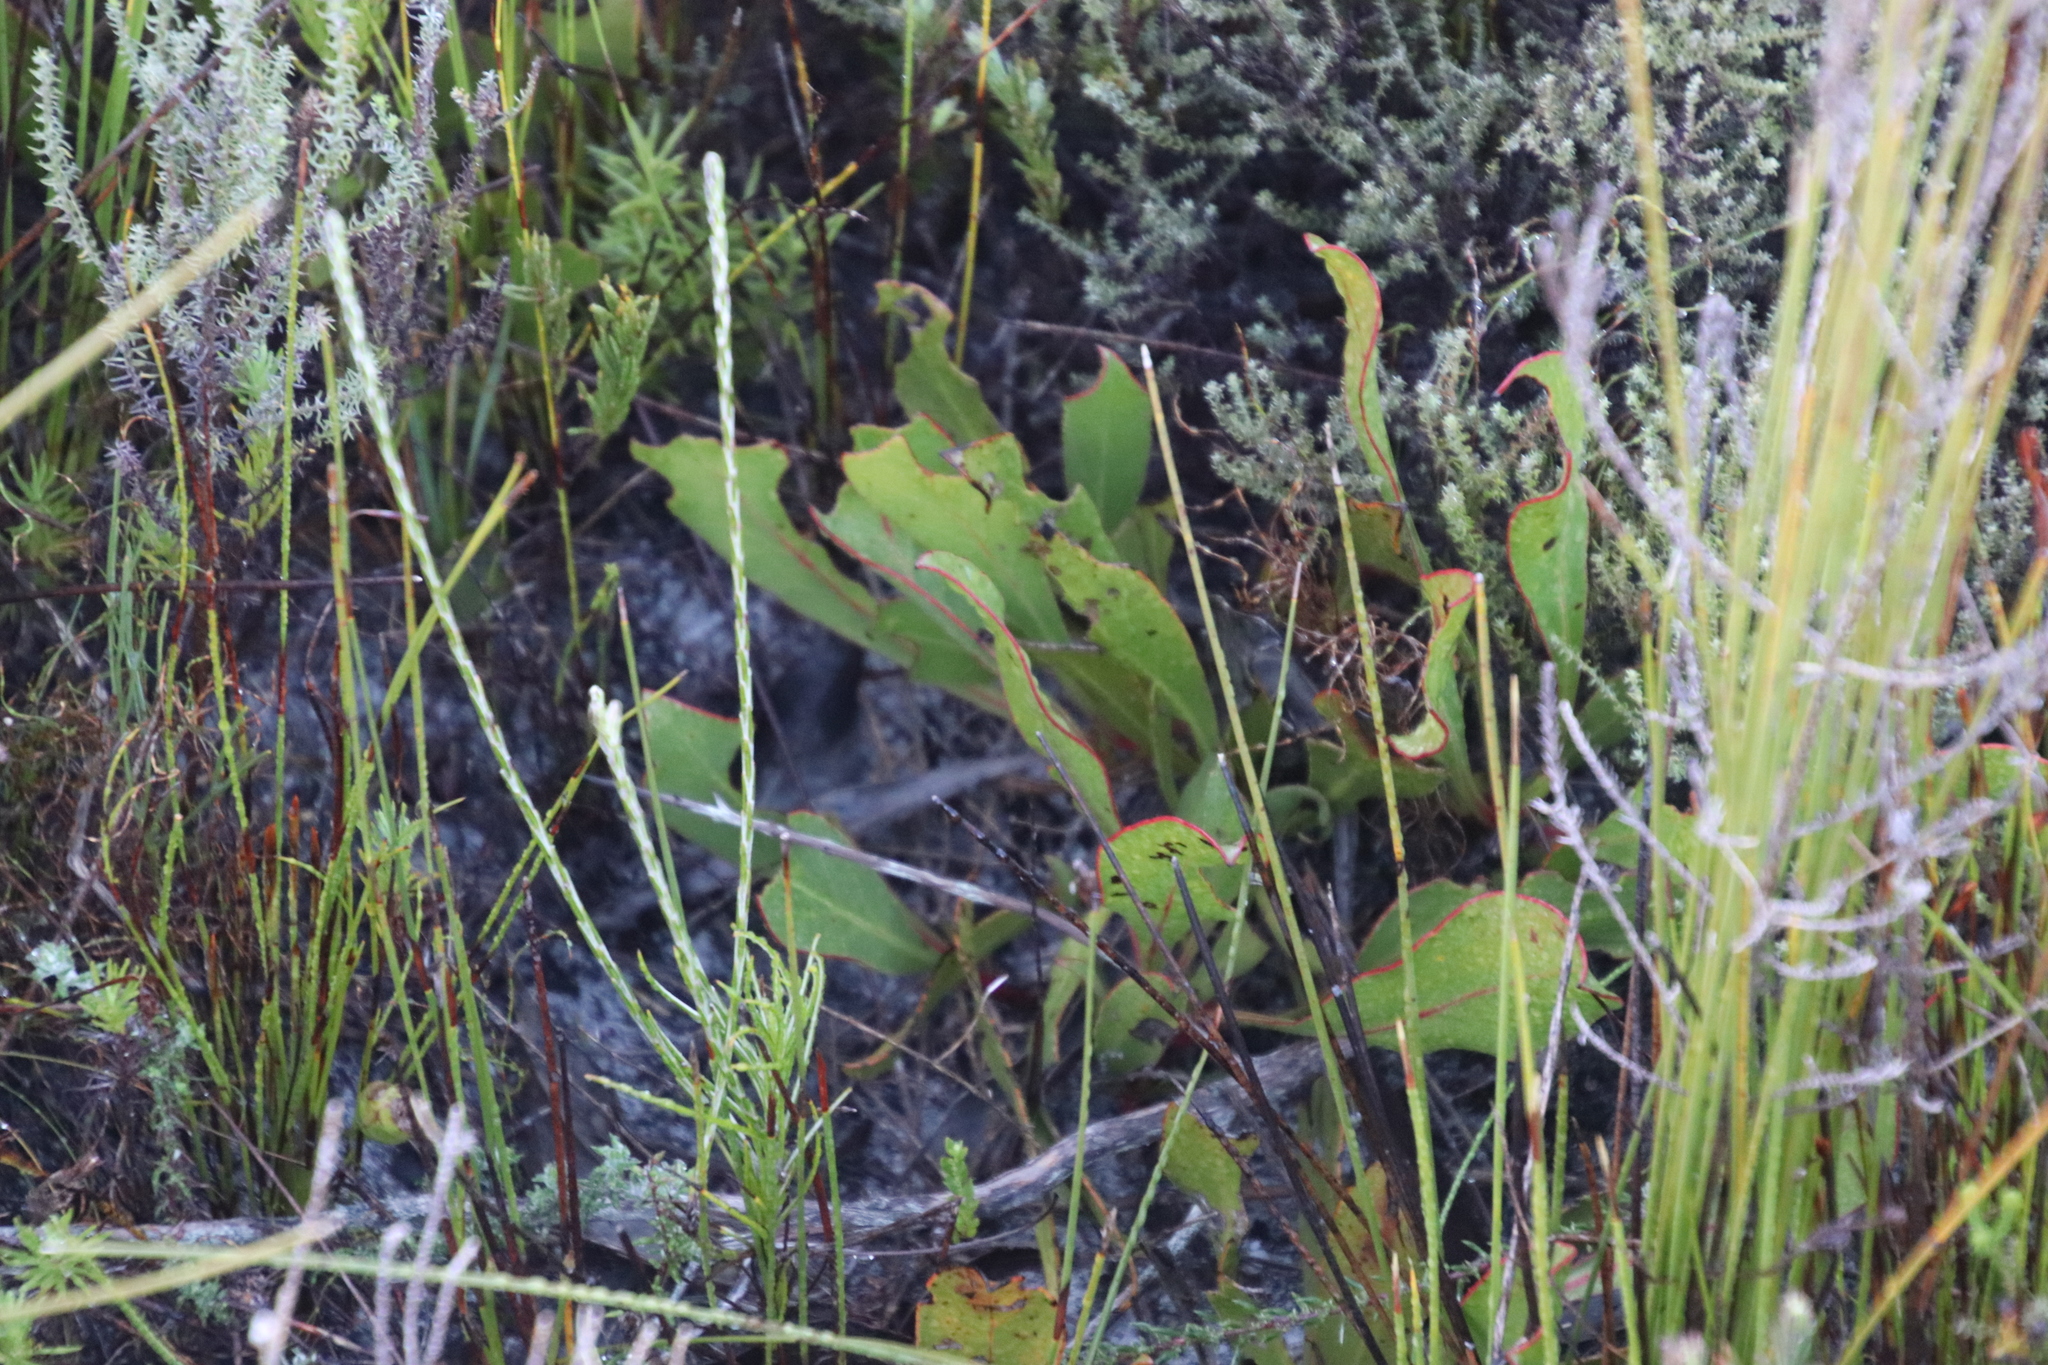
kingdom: Plantae
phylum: Tracheophyta
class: Magnoliopsida
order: Proteales
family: Proteaceae
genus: Protea
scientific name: Protea acaulos
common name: Common ground sugarbush
